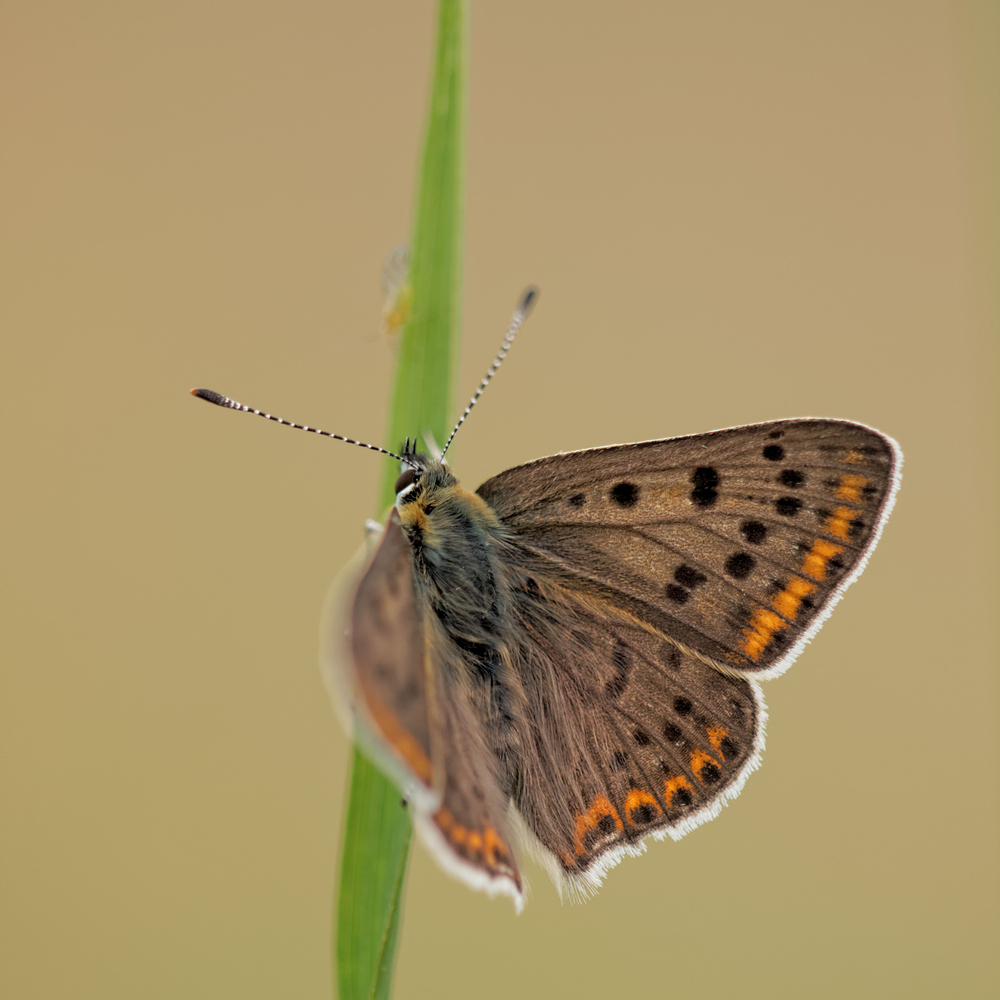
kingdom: Animalia
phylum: Arthropoda
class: Insecta
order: Lepidoptera
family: Lycaenidae
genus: Loweia
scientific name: Loweia tityrus
